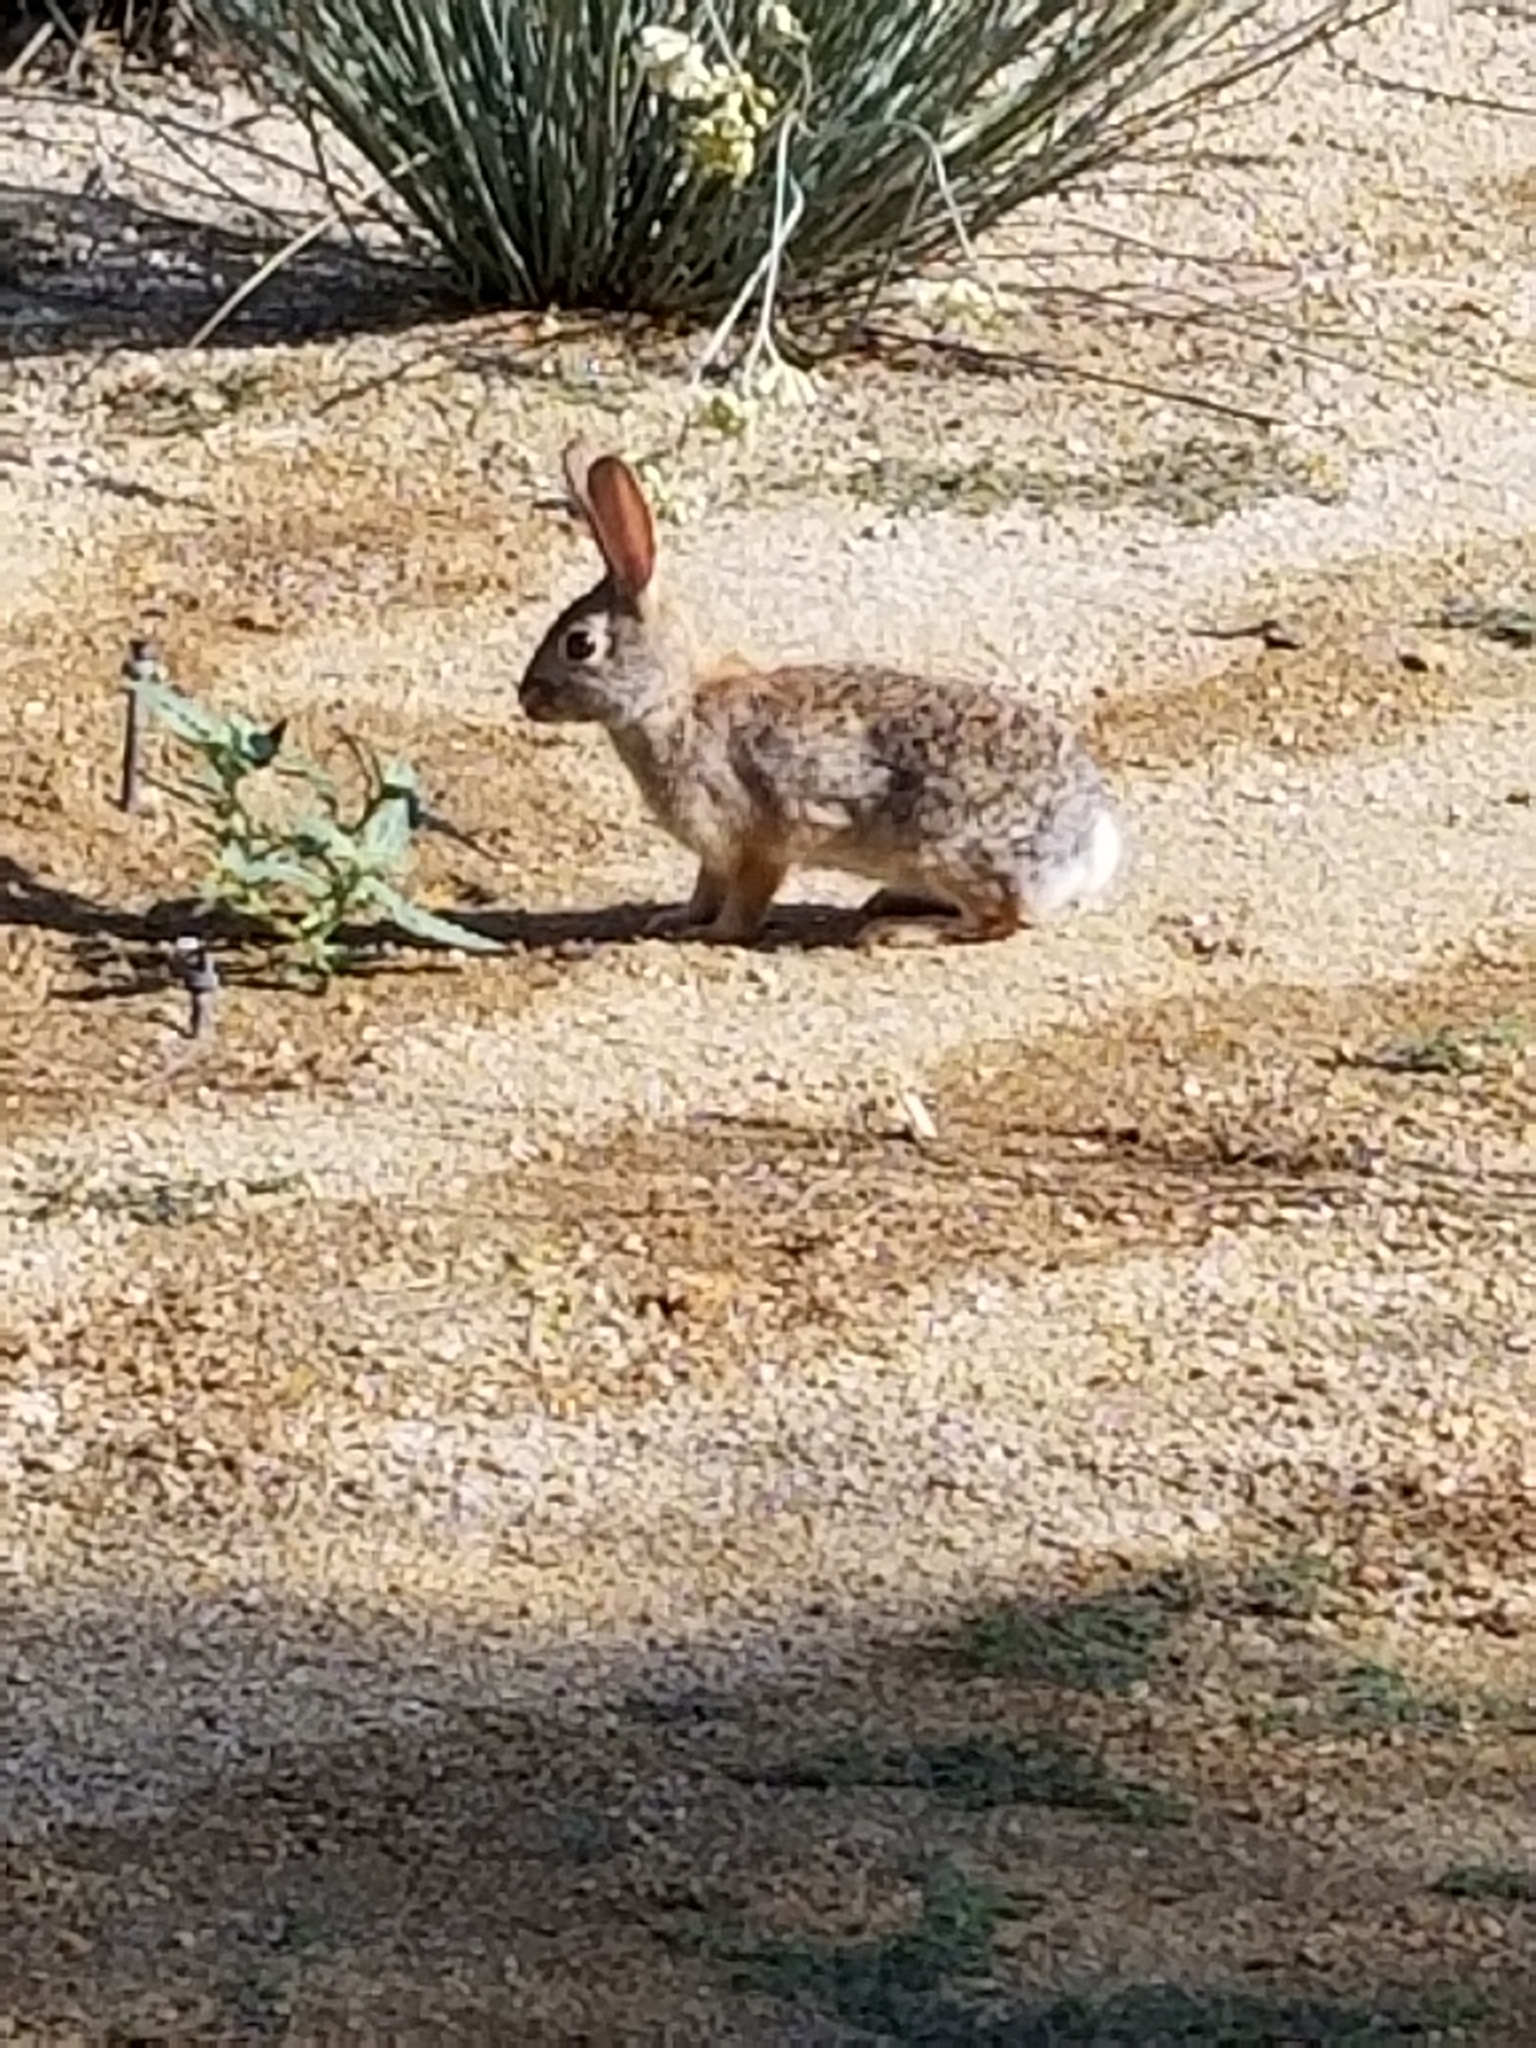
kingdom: Animalia
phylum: Chordata
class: Mammalia
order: Lagomorpha
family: Leporidae
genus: Sylvilagus
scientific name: Sylvilagus audubonii
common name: Desert cottontail
